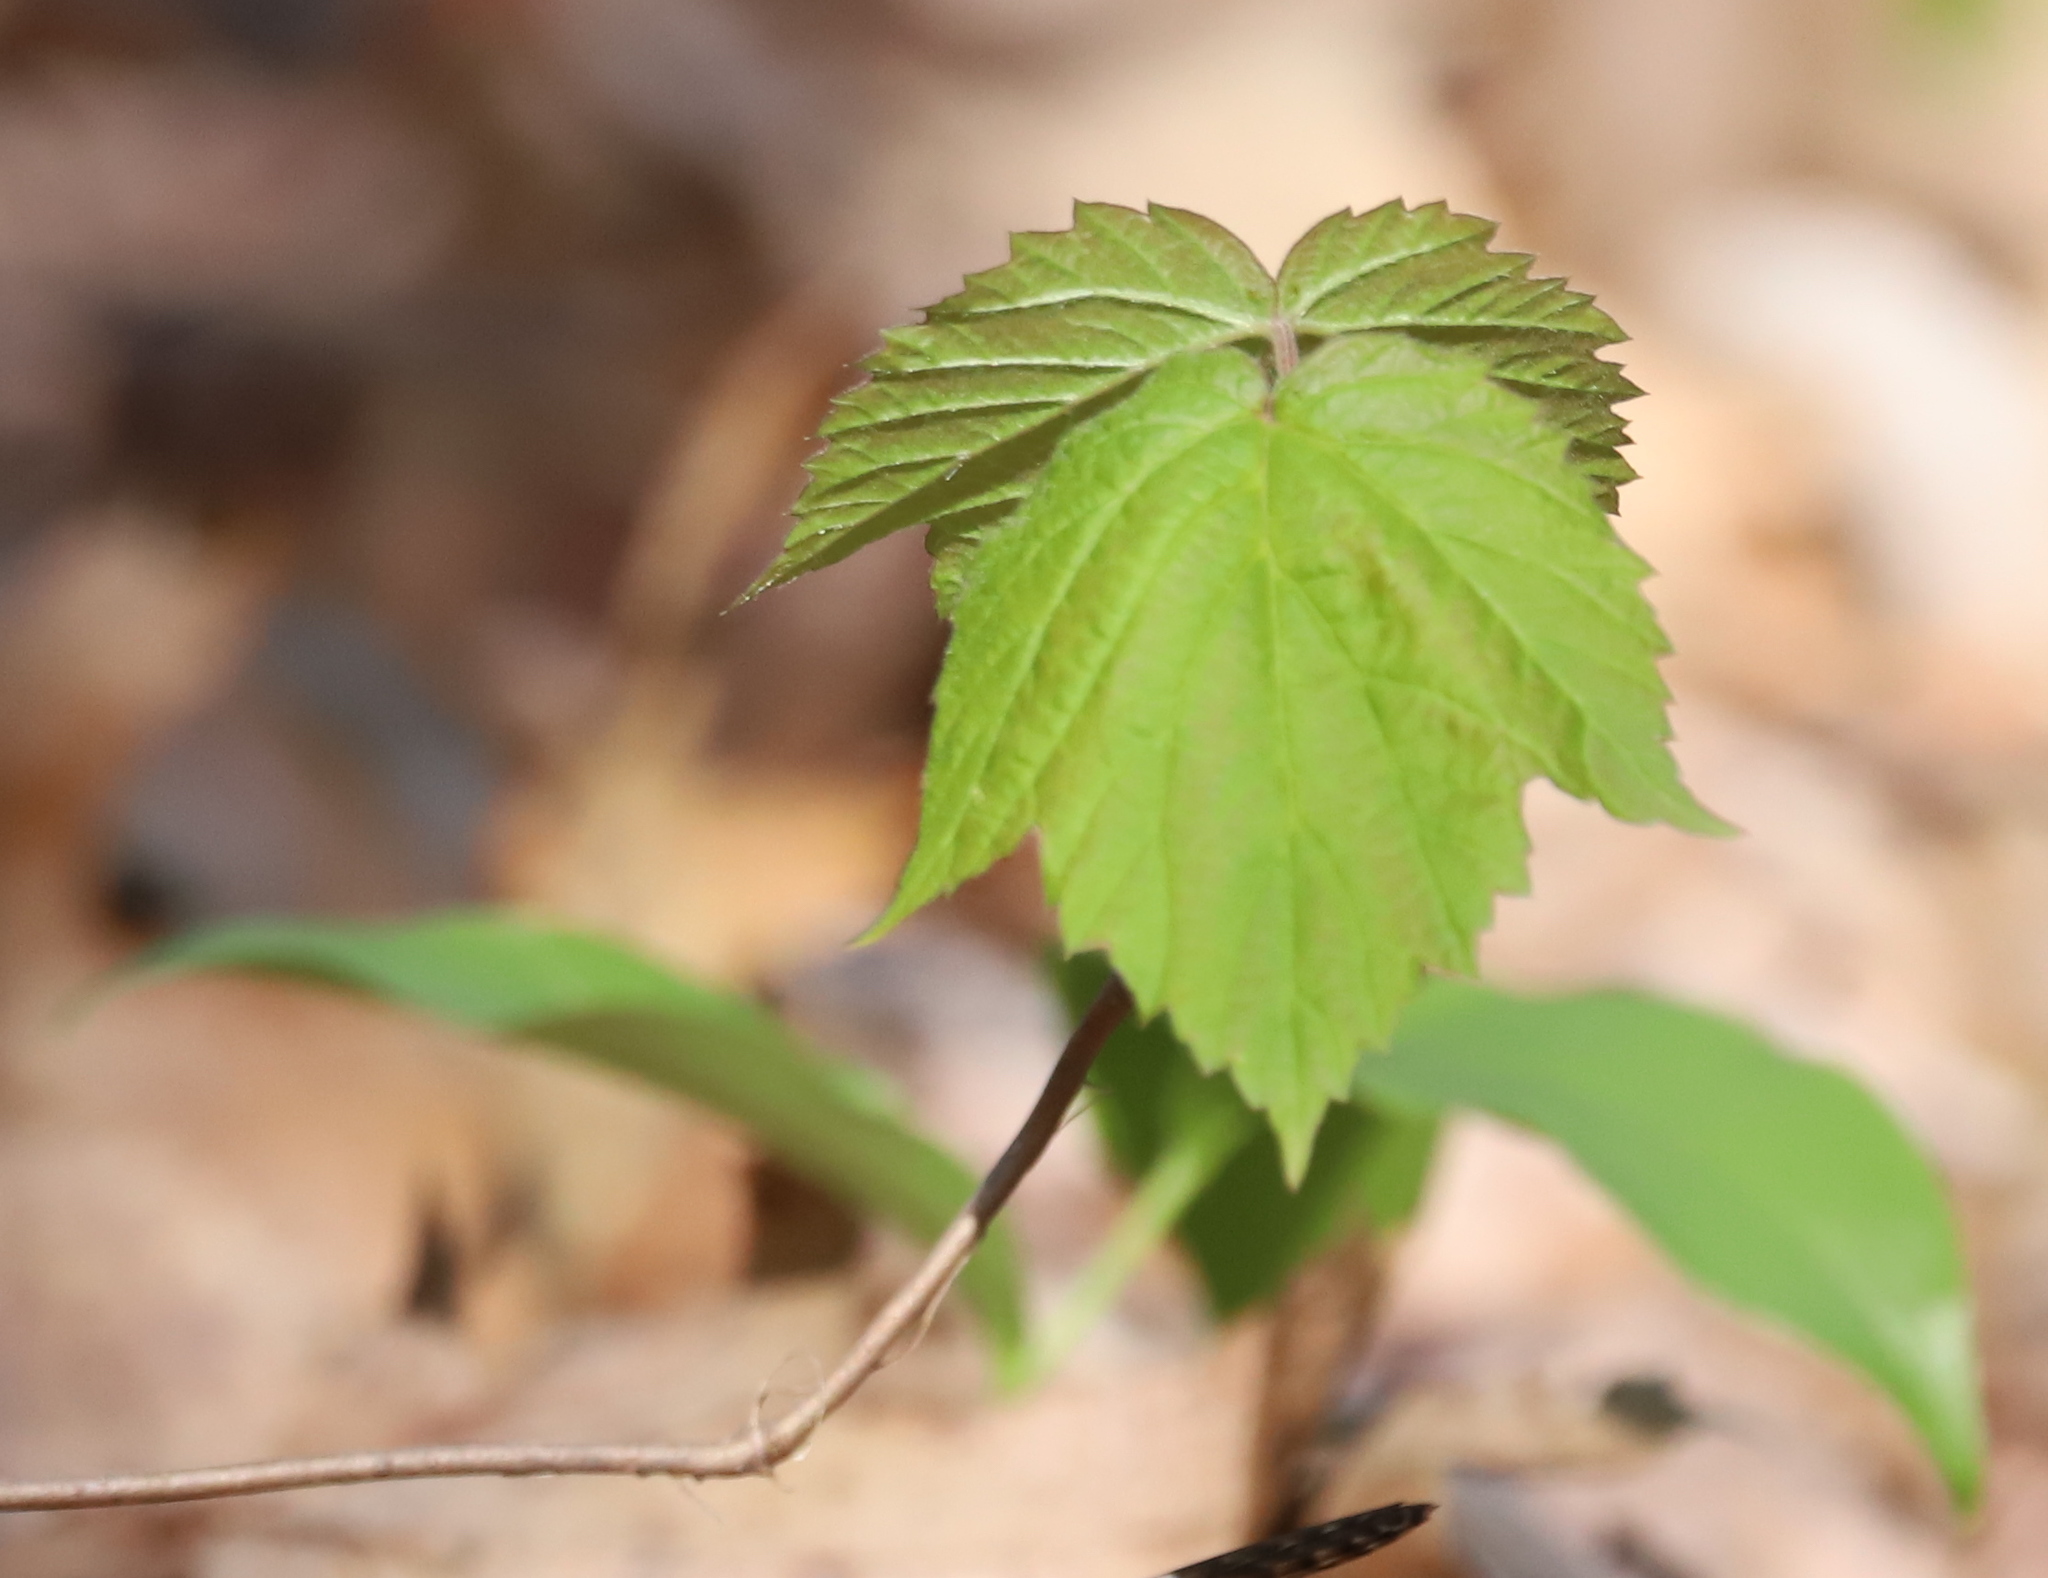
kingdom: Plantae
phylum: Tracheophyta
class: Magnoliopsida
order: Dipsacales
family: Viburnaceae
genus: Viburnum
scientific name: Viburnum acerifolium
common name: Dockmackie
